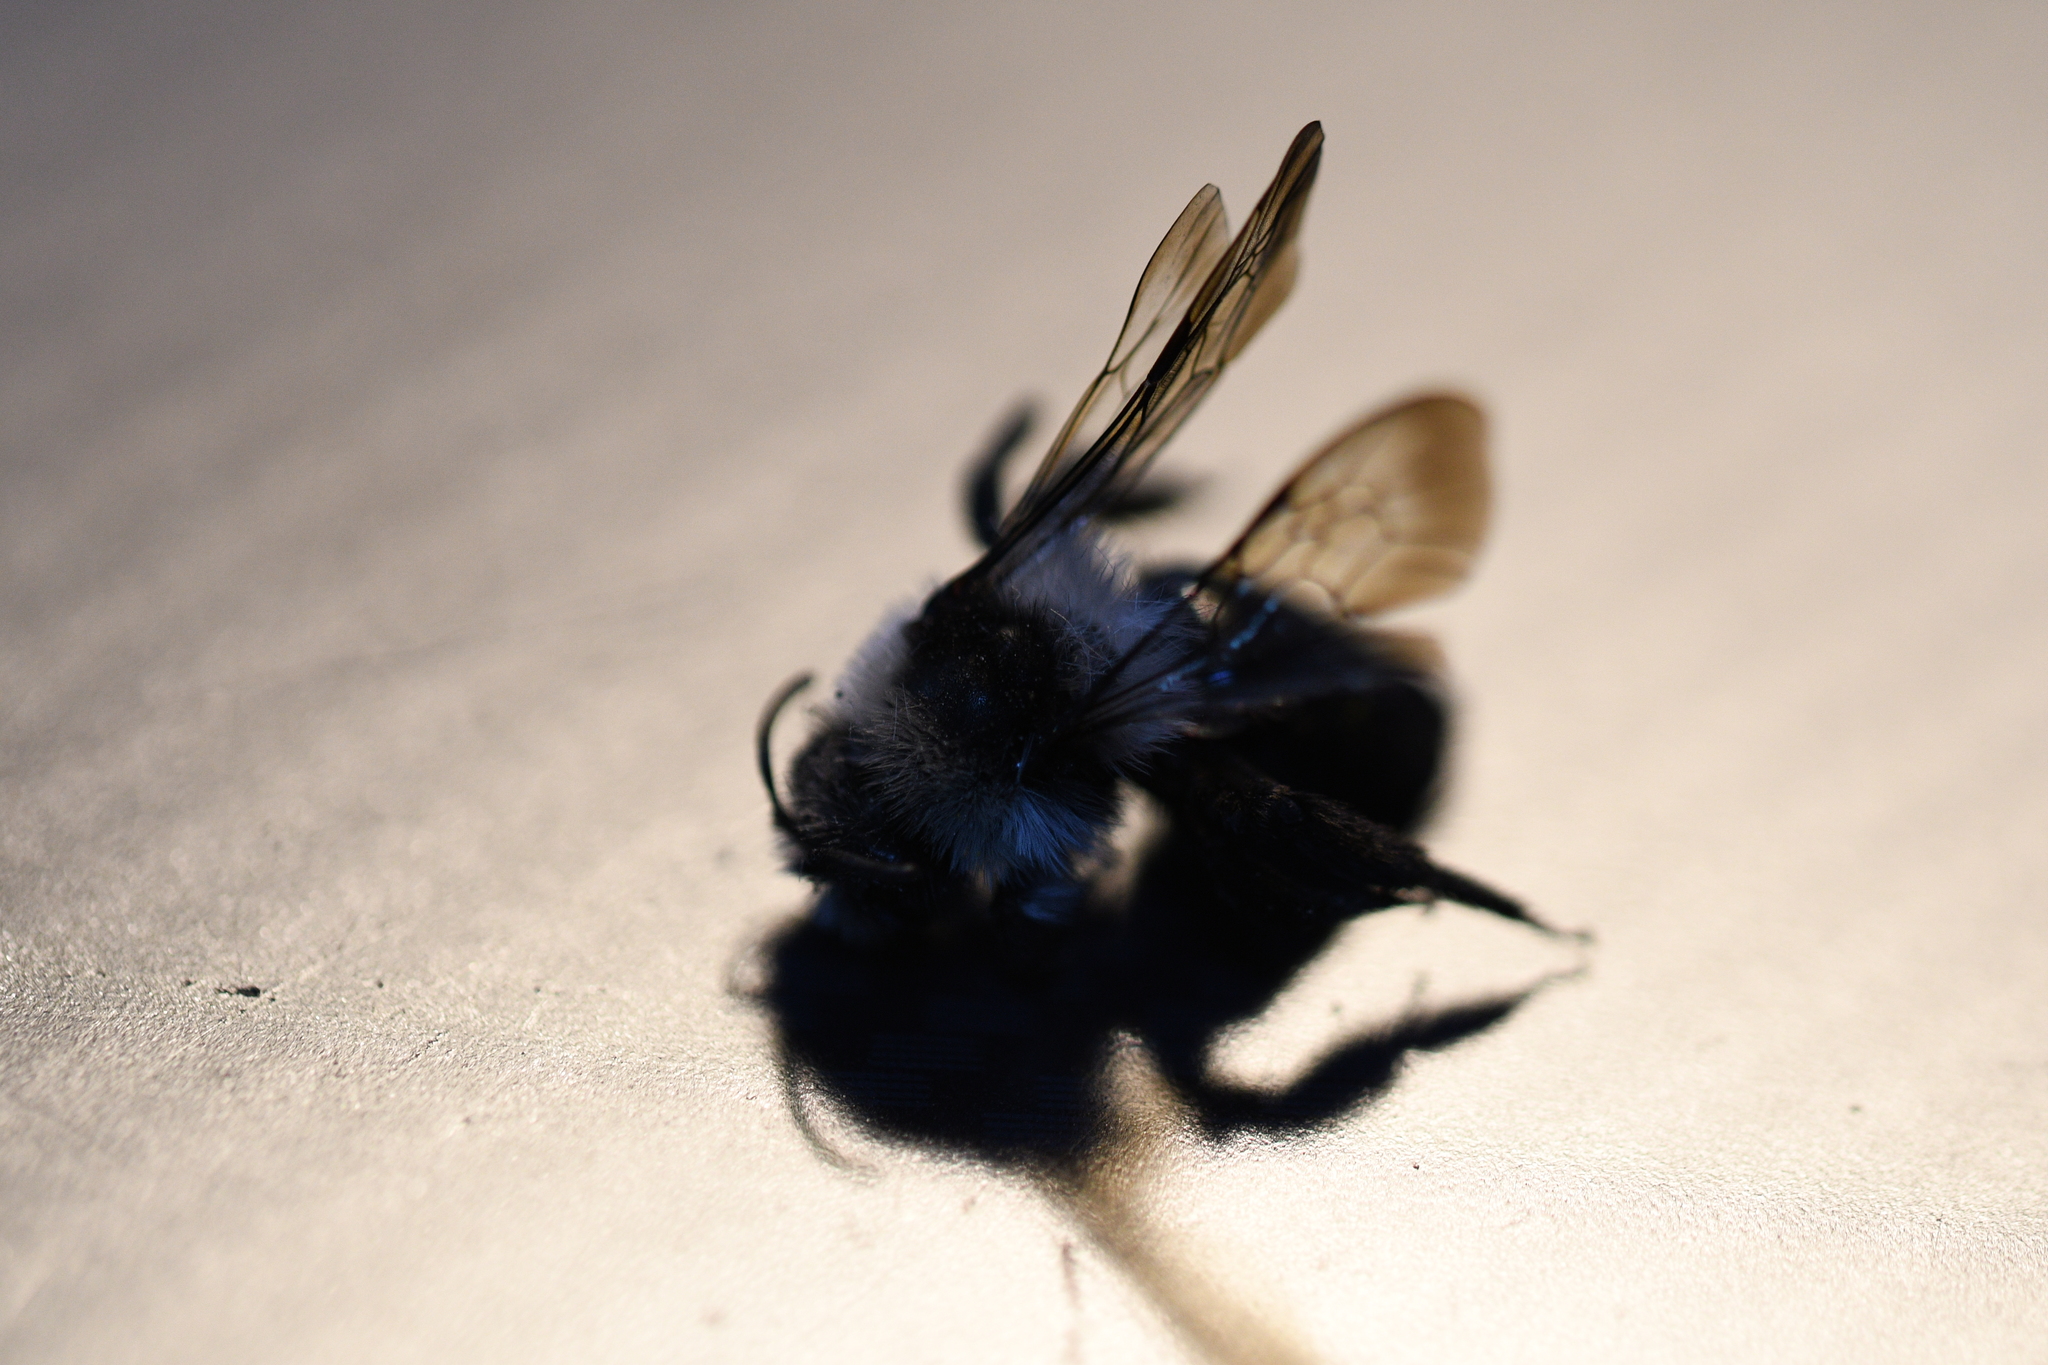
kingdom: Animalia
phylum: Arthropoda
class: Insecta
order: Hymenoptera
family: Andrenidae
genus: Andrena
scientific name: Andrena cineraria
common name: Ashy mining bee
